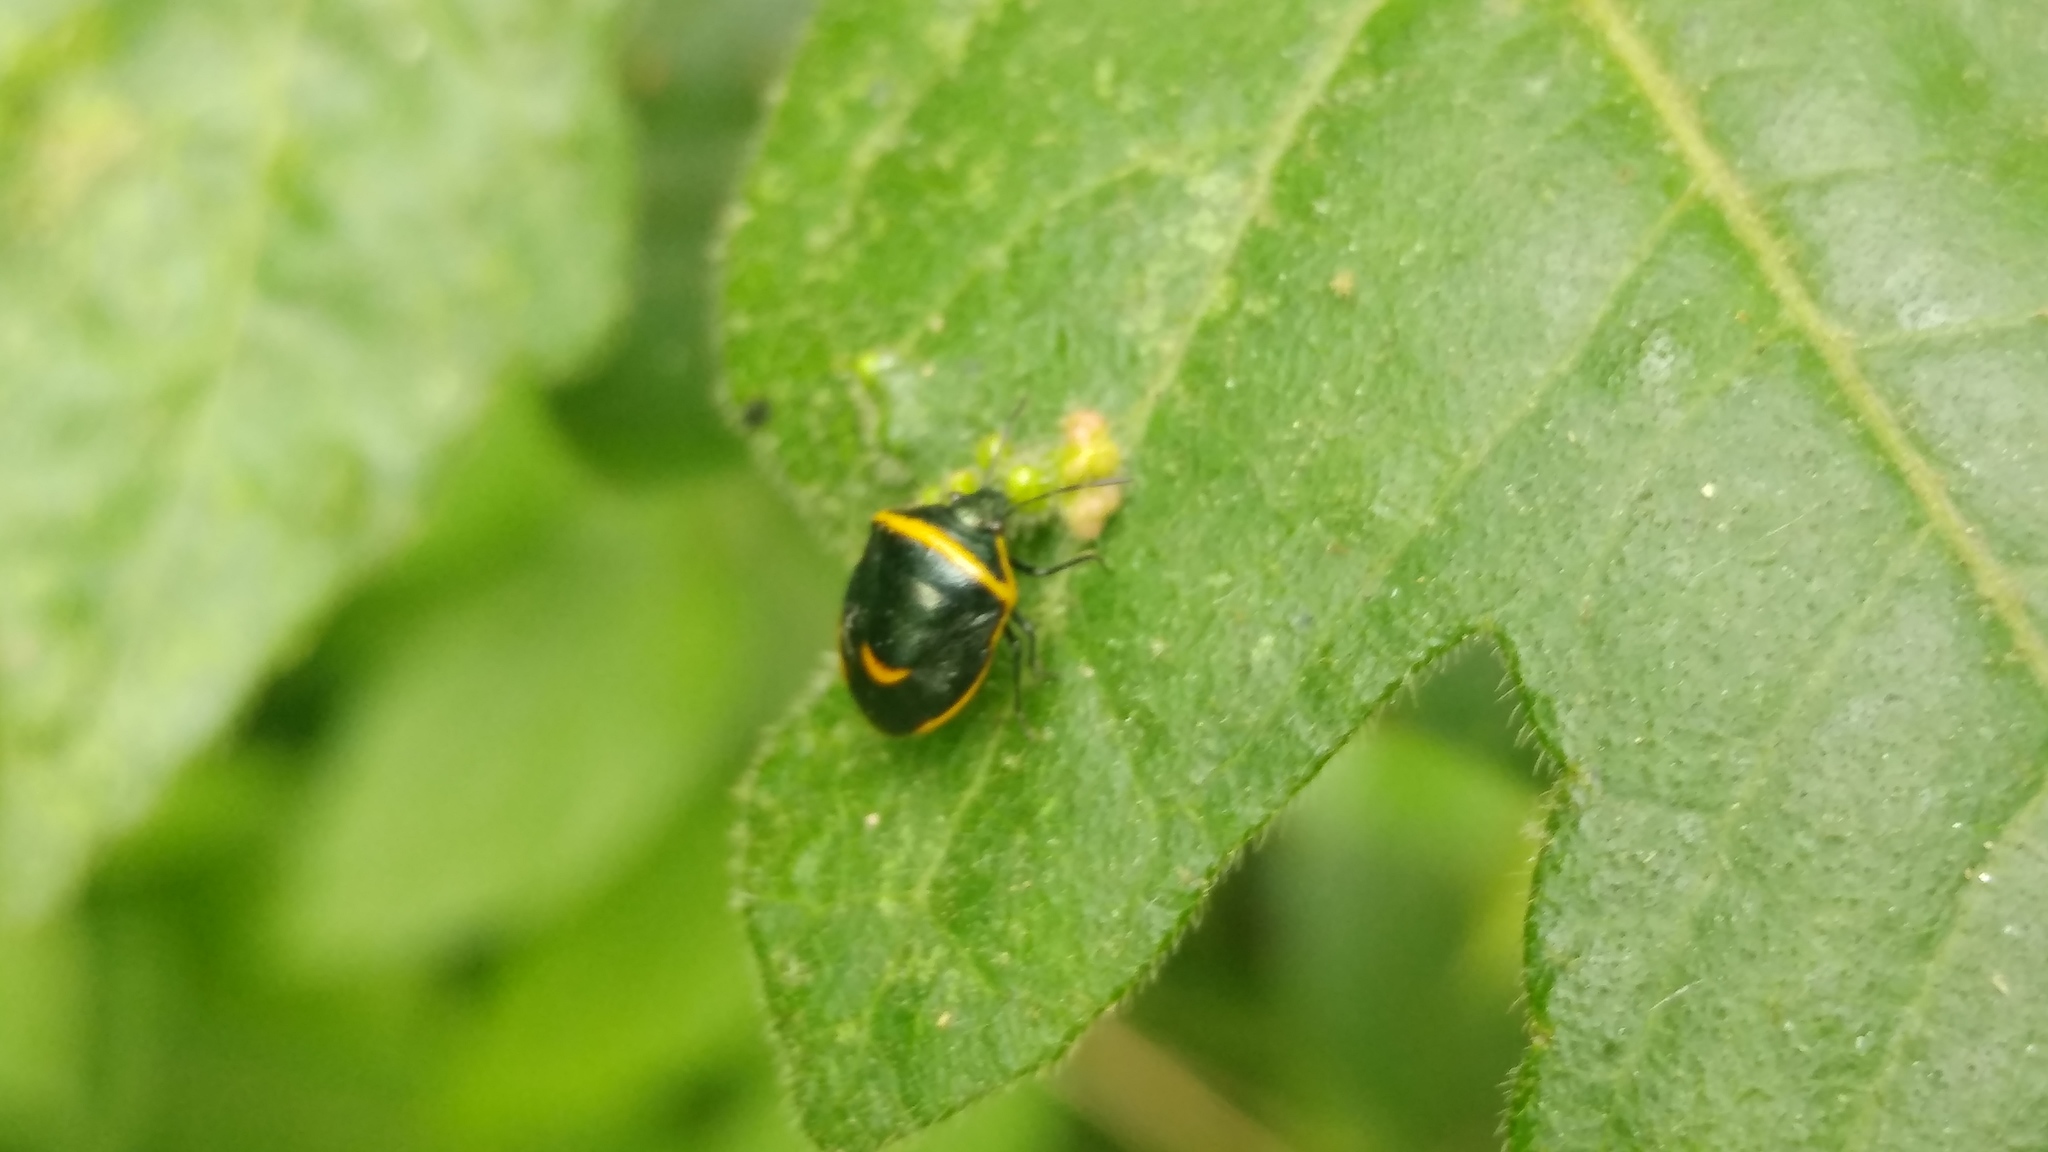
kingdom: Animalia
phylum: Arthropoda
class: Insecta
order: Hemiptera
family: Pentatomidae
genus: Cosmopepla
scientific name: Cosmopepla decorata
